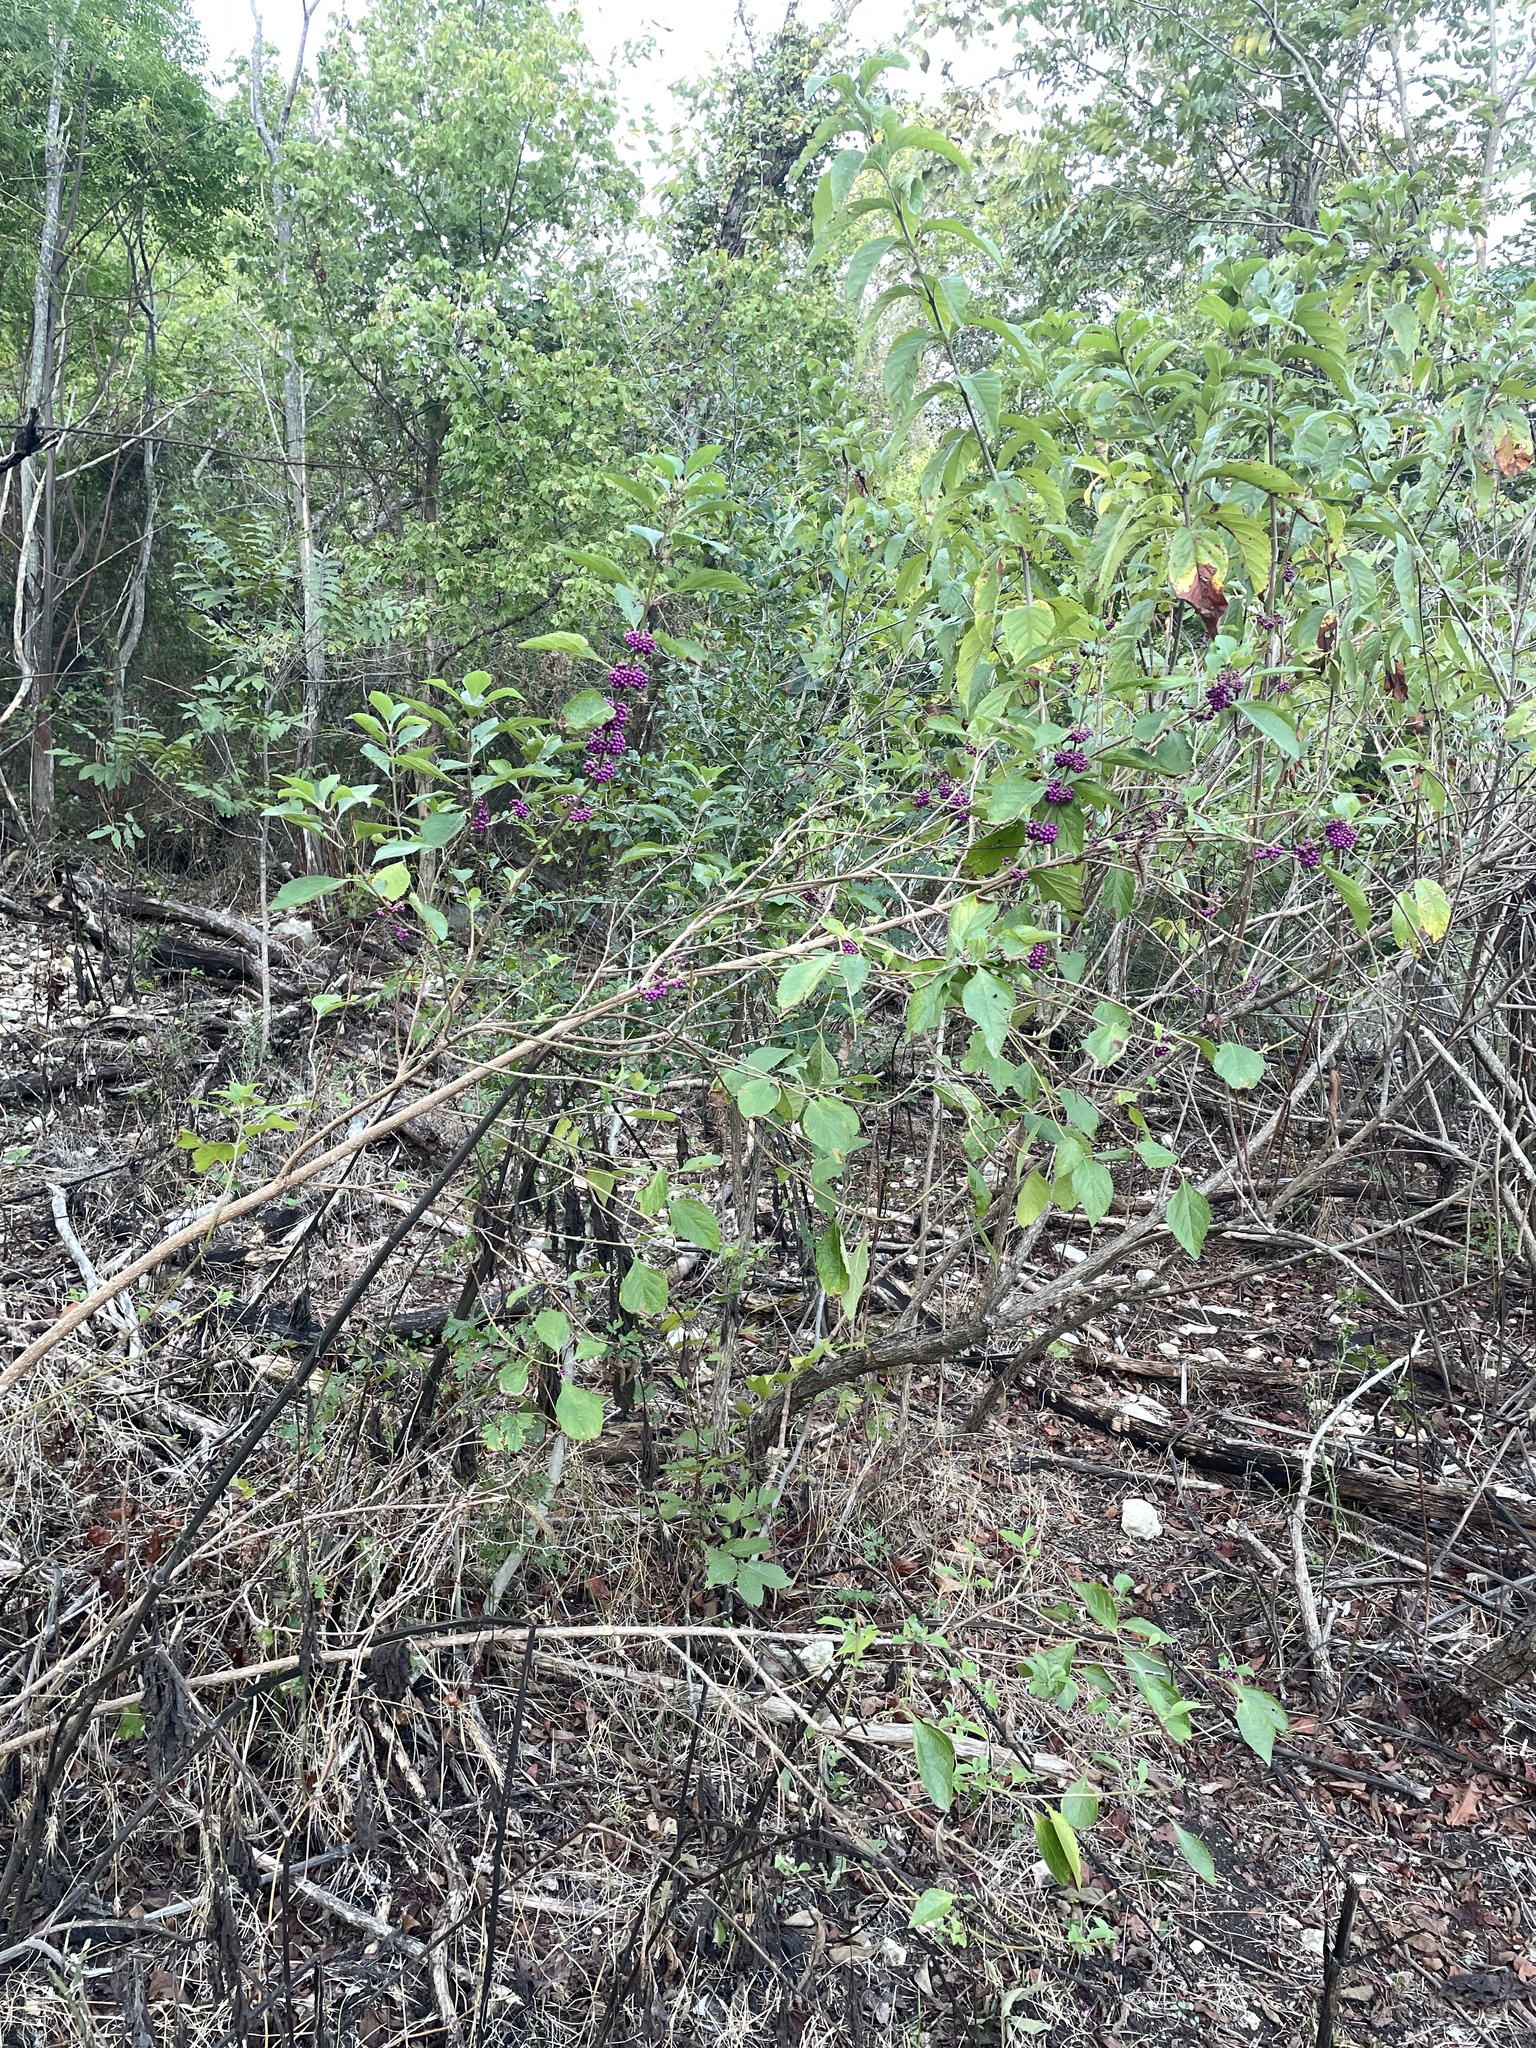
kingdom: Plantae
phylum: Tracheophyta
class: Magnoliopsida
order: Lamiales
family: Lamiaceae
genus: Callicarpa
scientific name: Callicarpa americana
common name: American beautyberry
